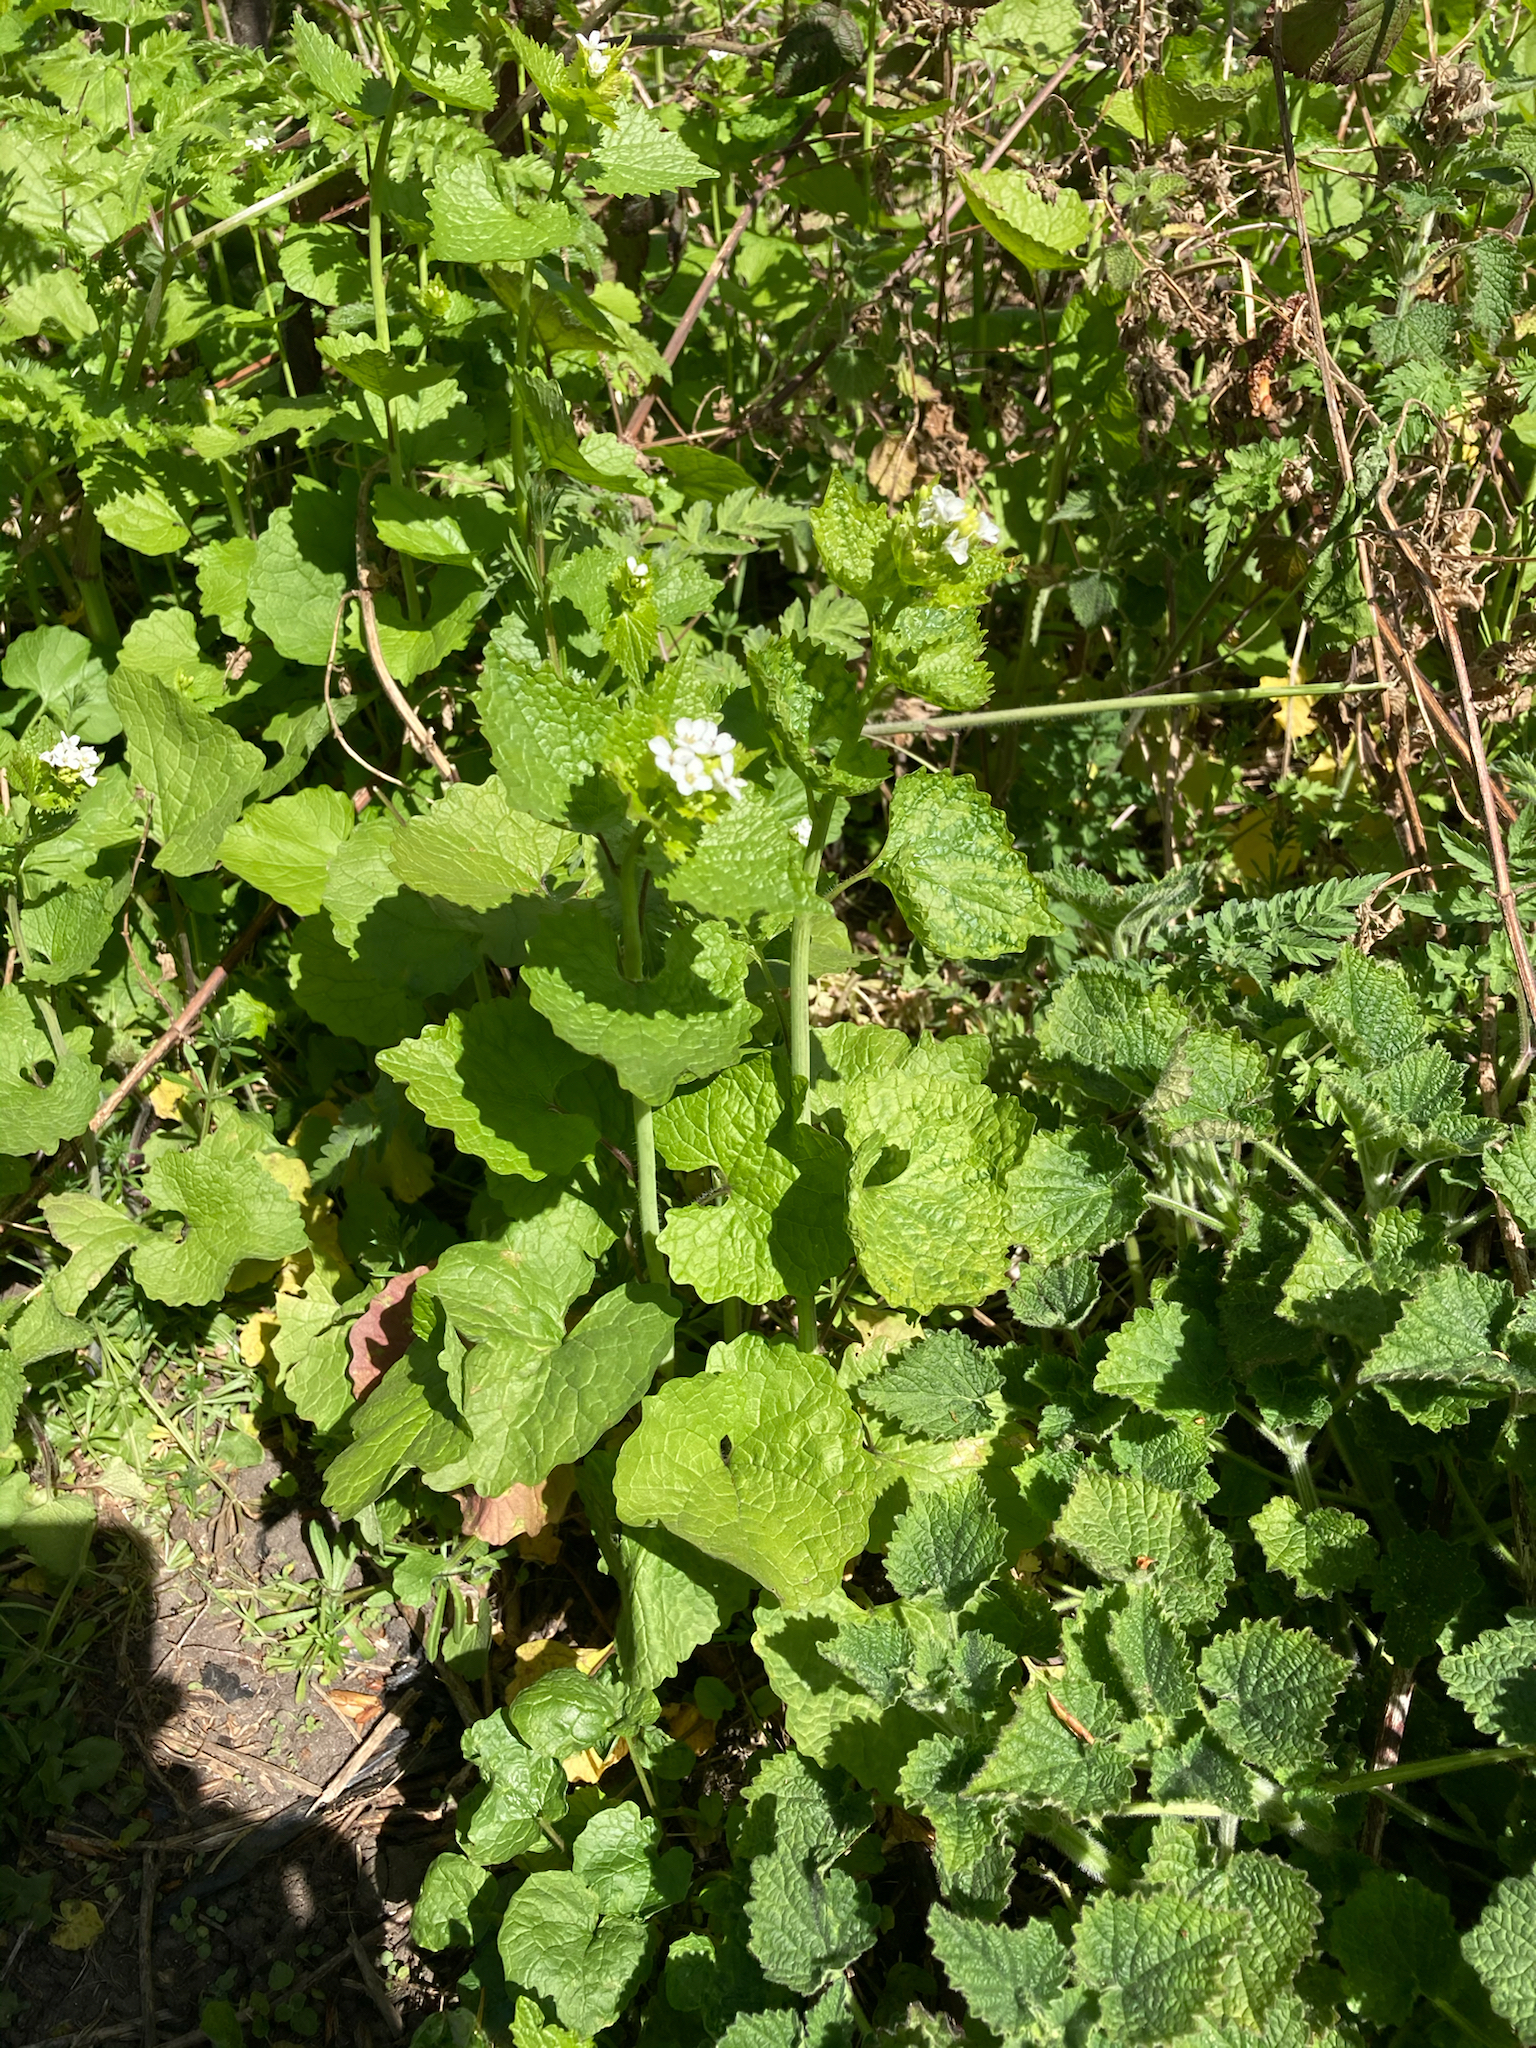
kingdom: Plantae
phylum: Tracheophyta
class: Magnoliopsida
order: Brassicales
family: Brassicaceae
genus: Alliaria
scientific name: Alliaria petiolata
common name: Garlic mustard
